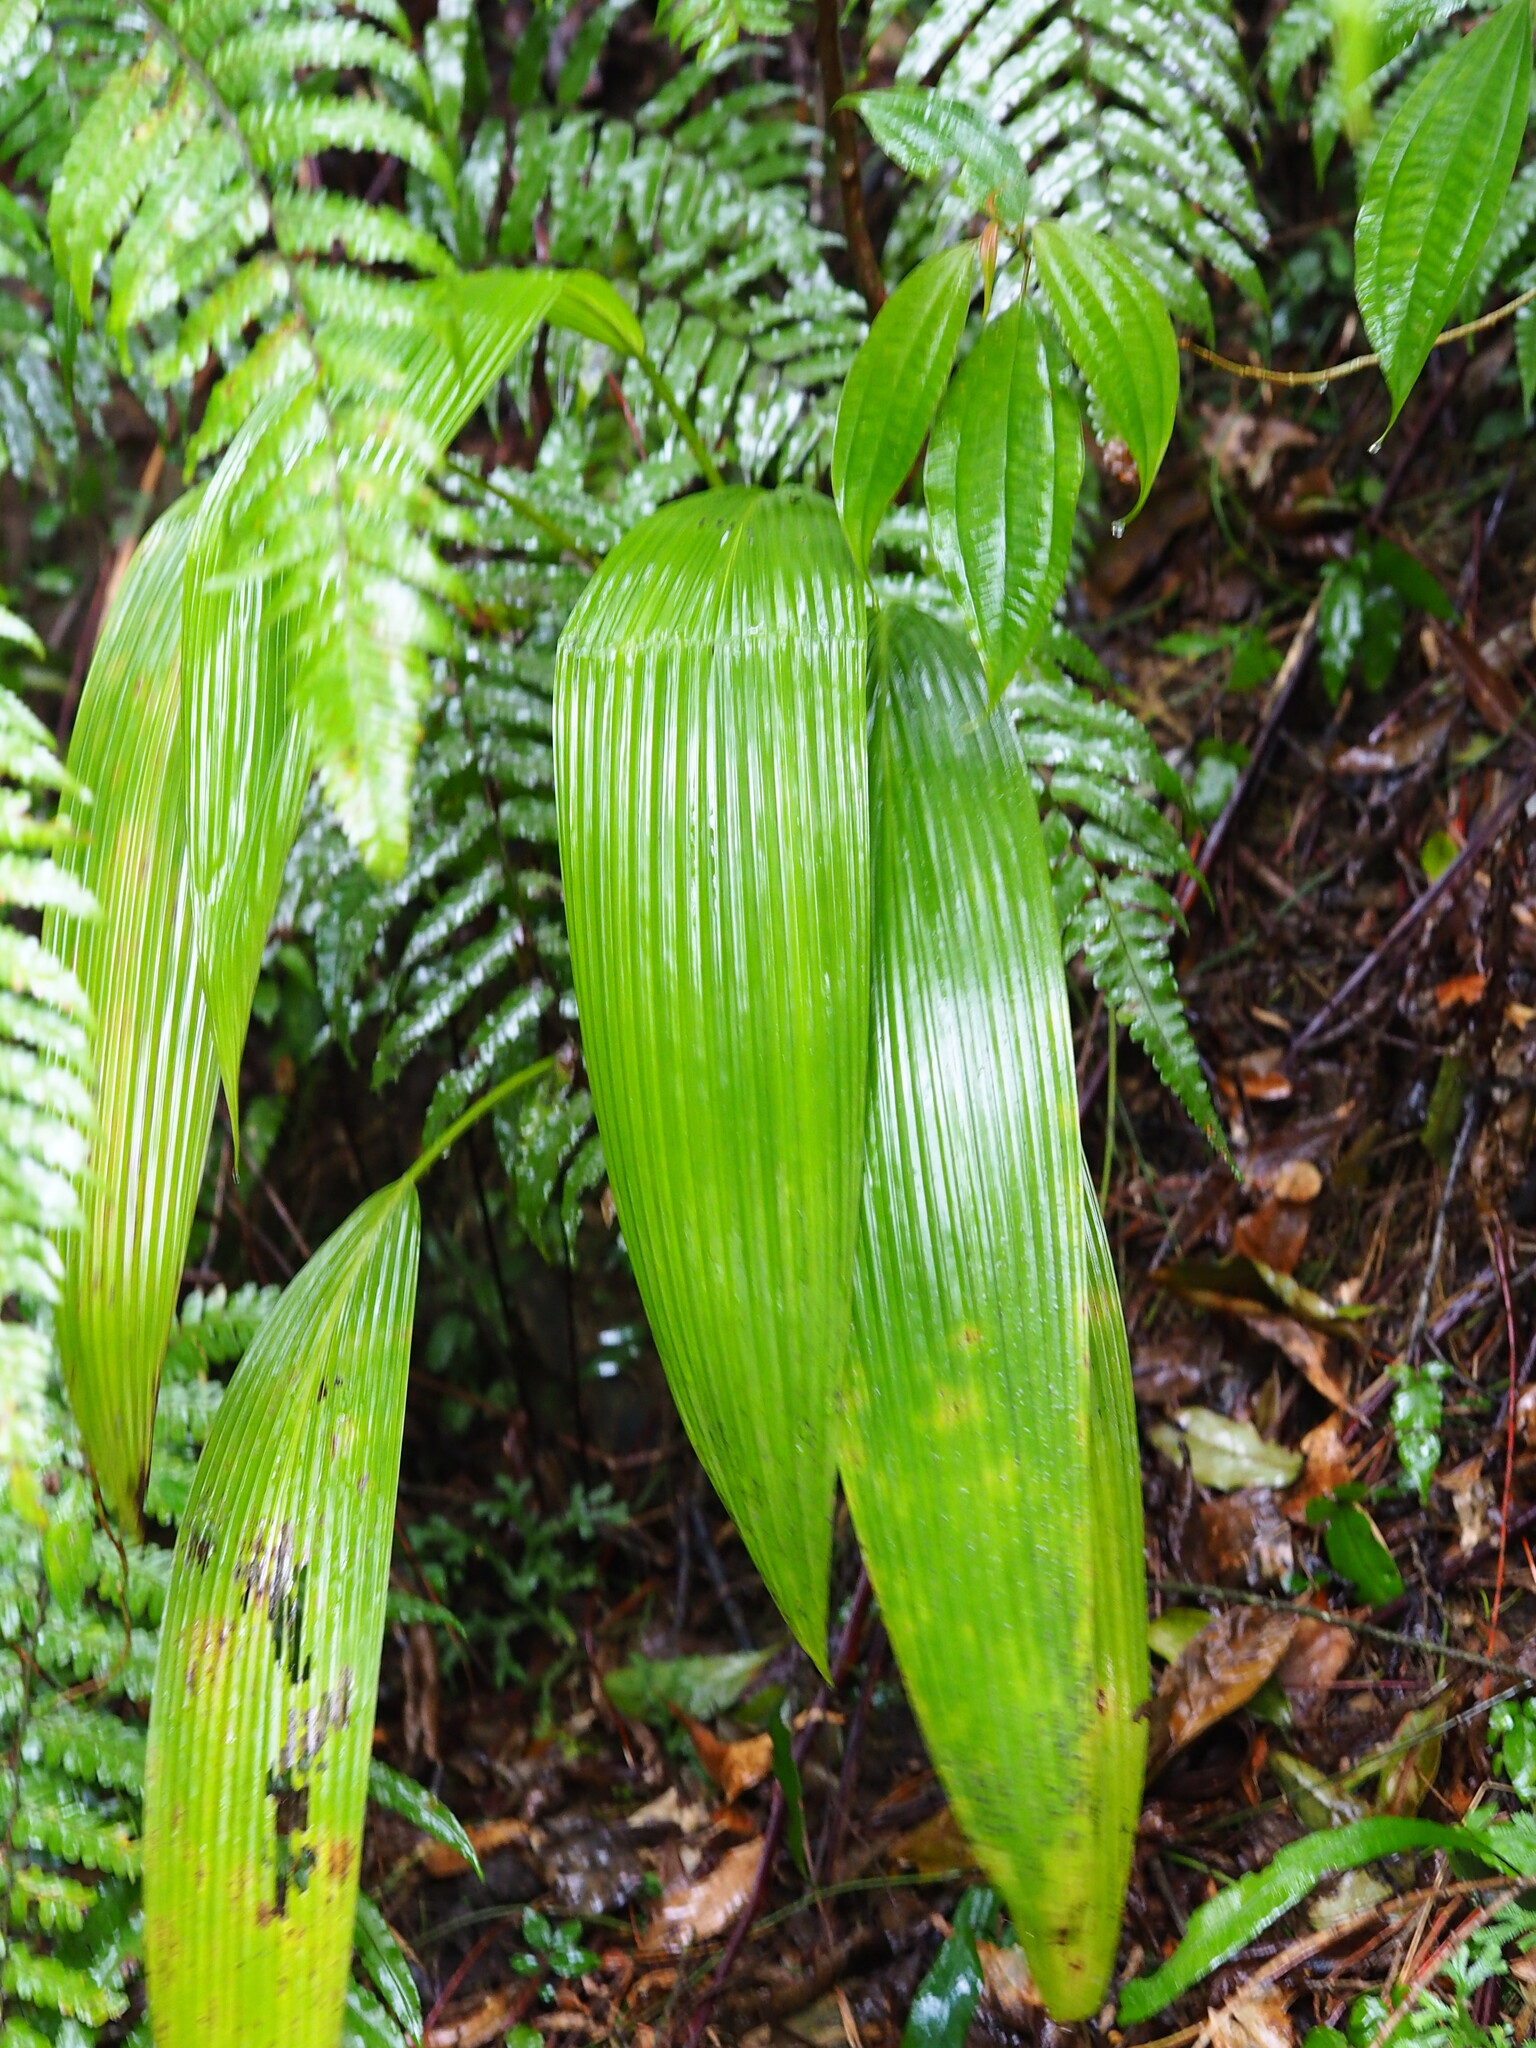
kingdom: Plantae
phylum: Tracheophyta
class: Liliopsida
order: Asparagales
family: Hypoxidaceae
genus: Curculigo
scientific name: Curculigo capitulata
